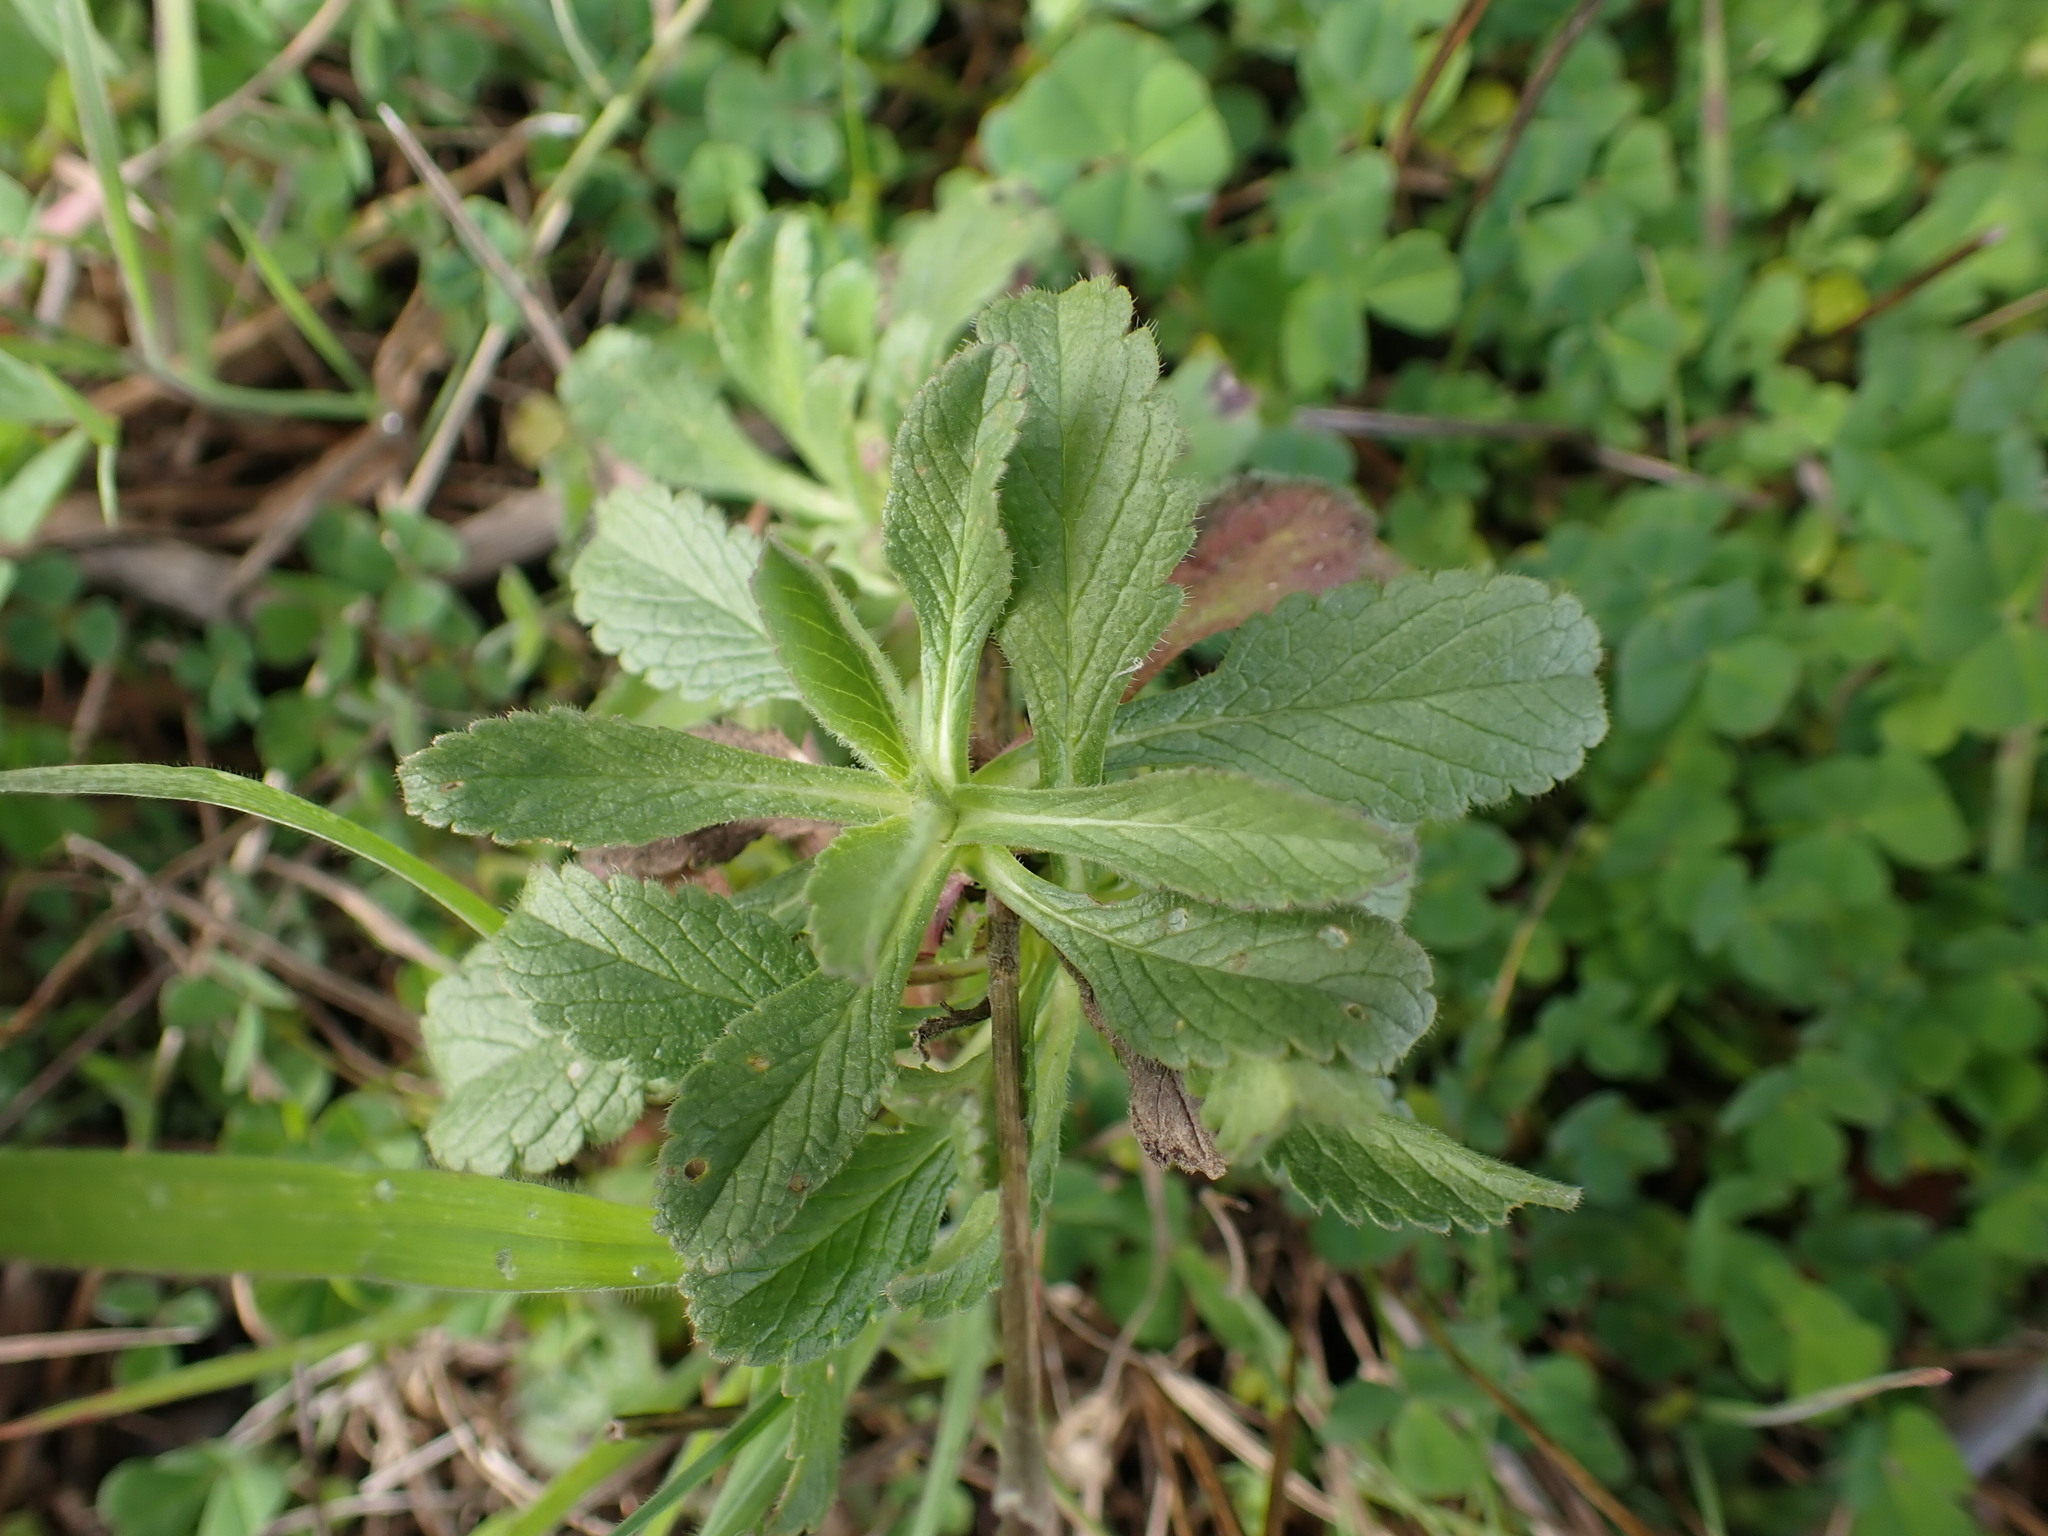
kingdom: Plantae
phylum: Tracheophyta
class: Magnoliopsida
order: Dipsacales
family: Caprifoliaceae
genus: Sixalix
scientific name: Sixalix maritima
